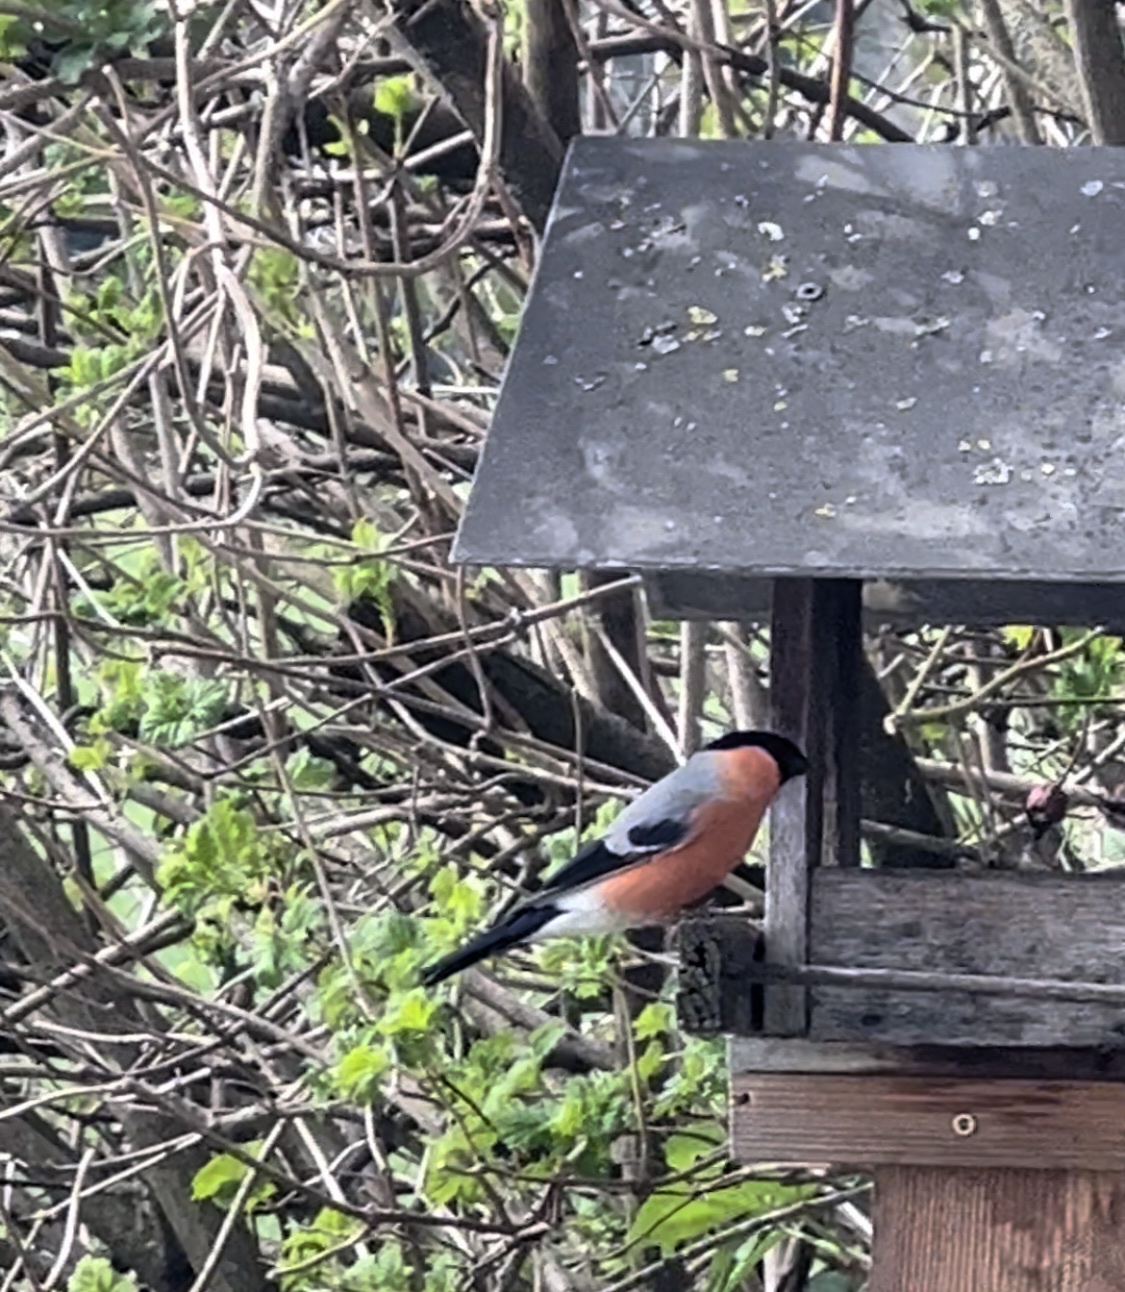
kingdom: Animalia
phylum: Chordata
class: Aves
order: Passeriformes
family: Fringillidae
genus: Pyrrhula
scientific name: Pyrrhula pyrrhula
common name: Eurasian bullfinch
